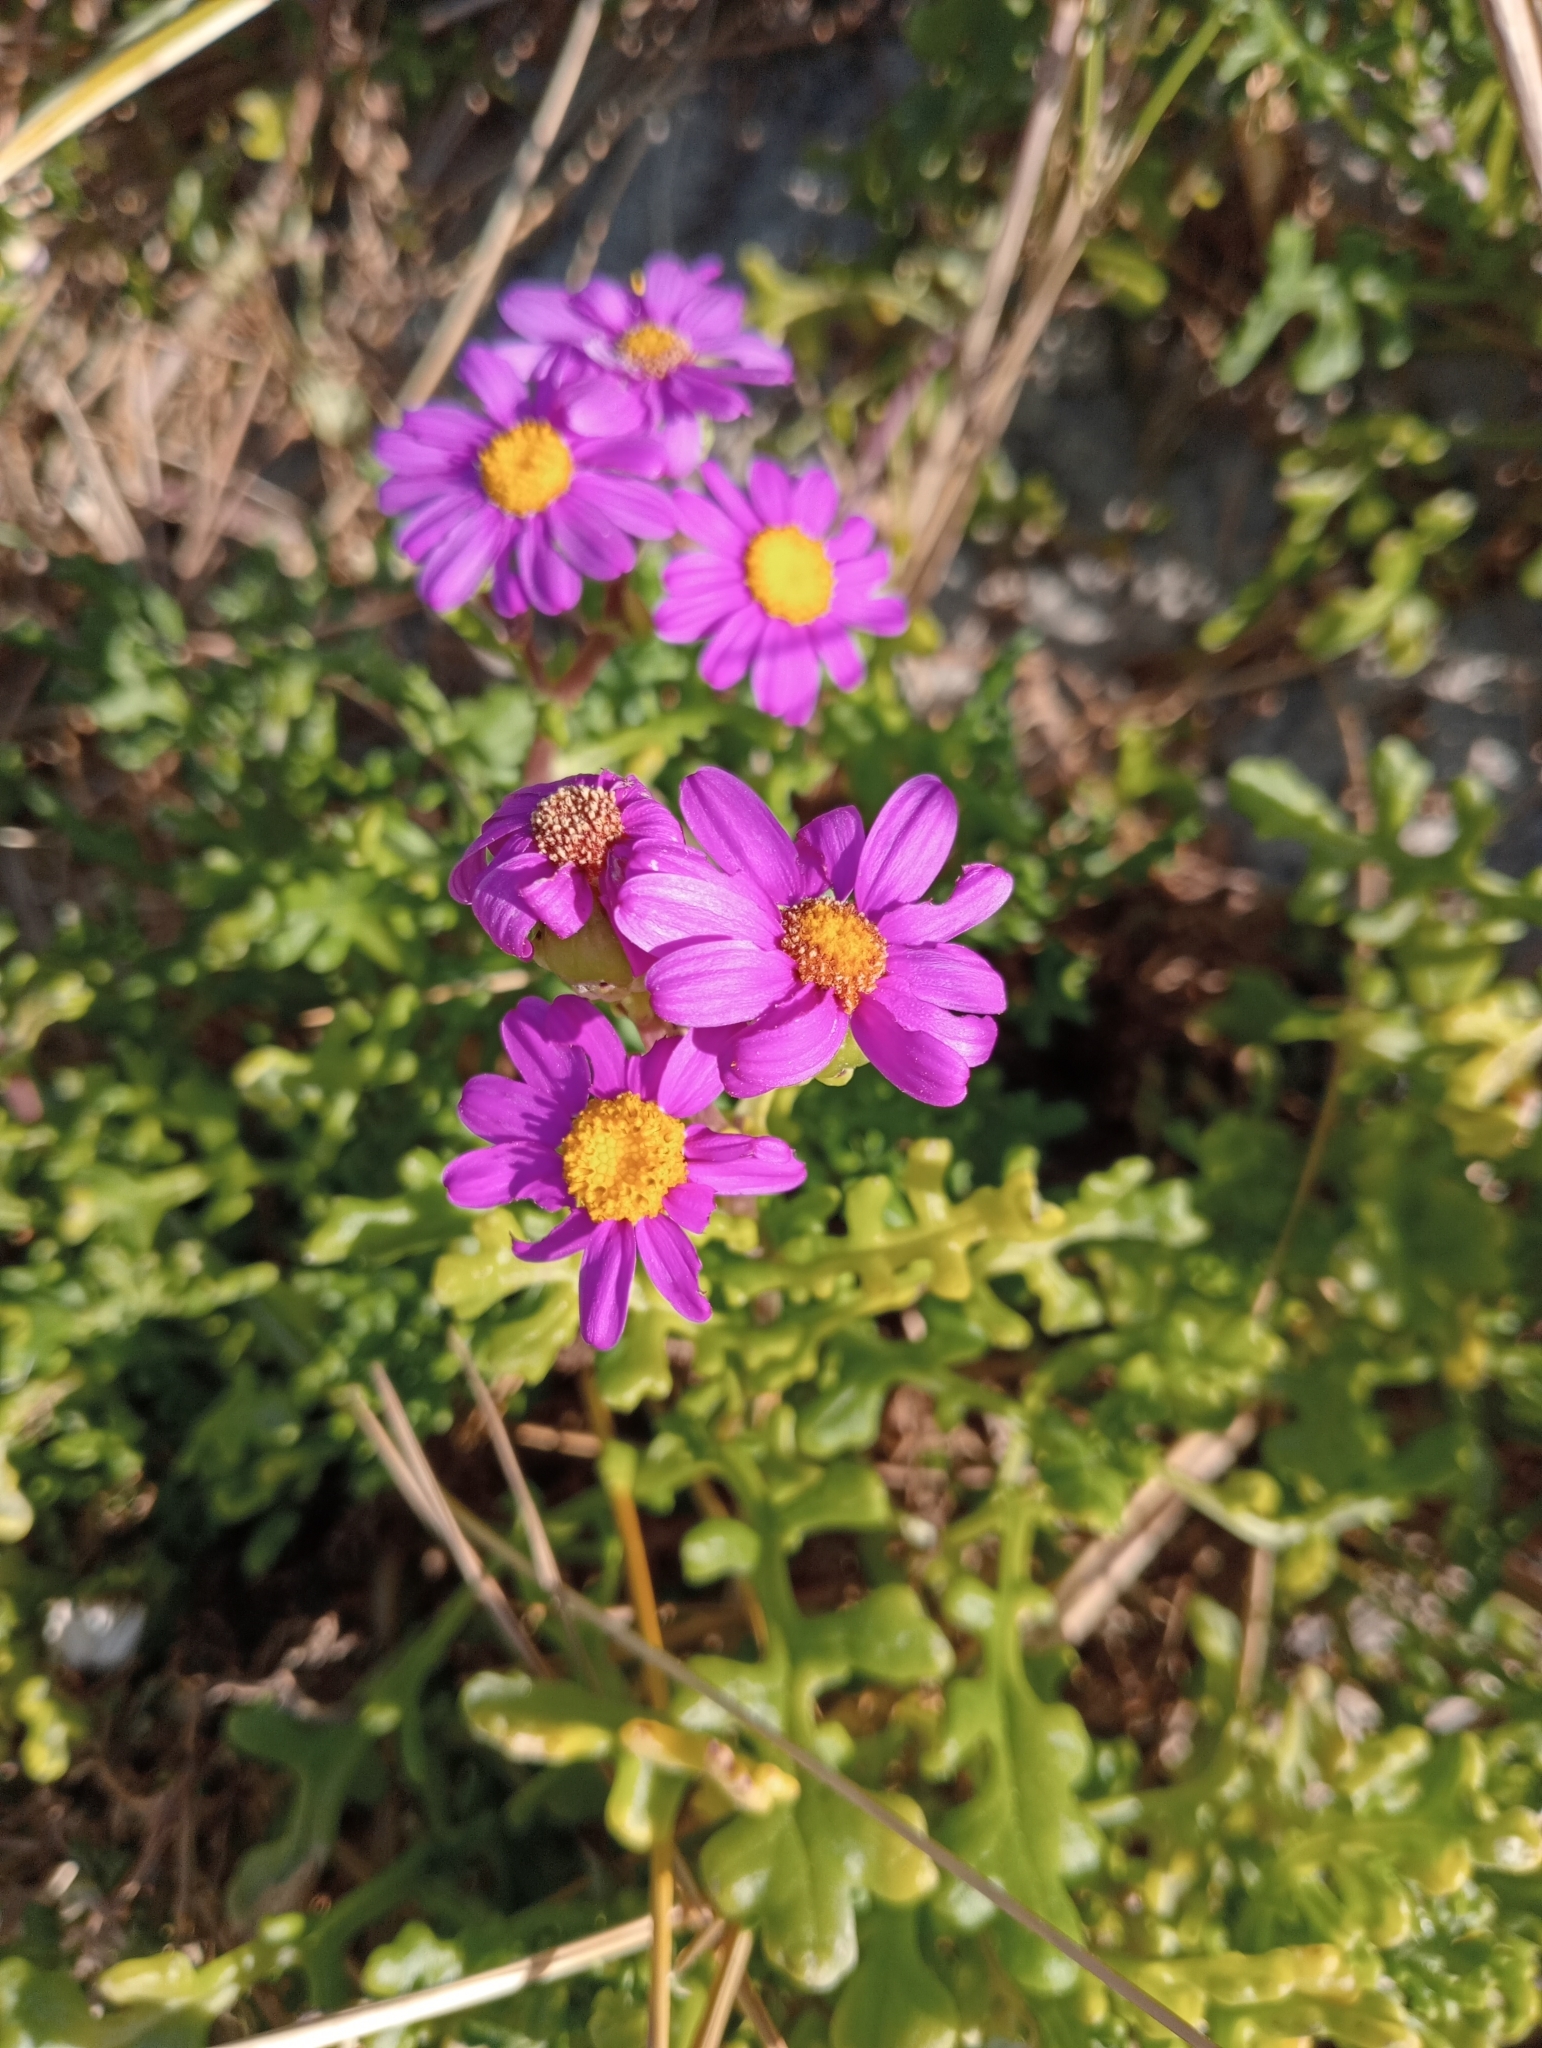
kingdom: Plantae
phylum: Tracheophyta
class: Magnoliopsida
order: Asterales
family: Asteraceae
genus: Senecio
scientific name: Senecio elegans
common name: Purple groundsel
